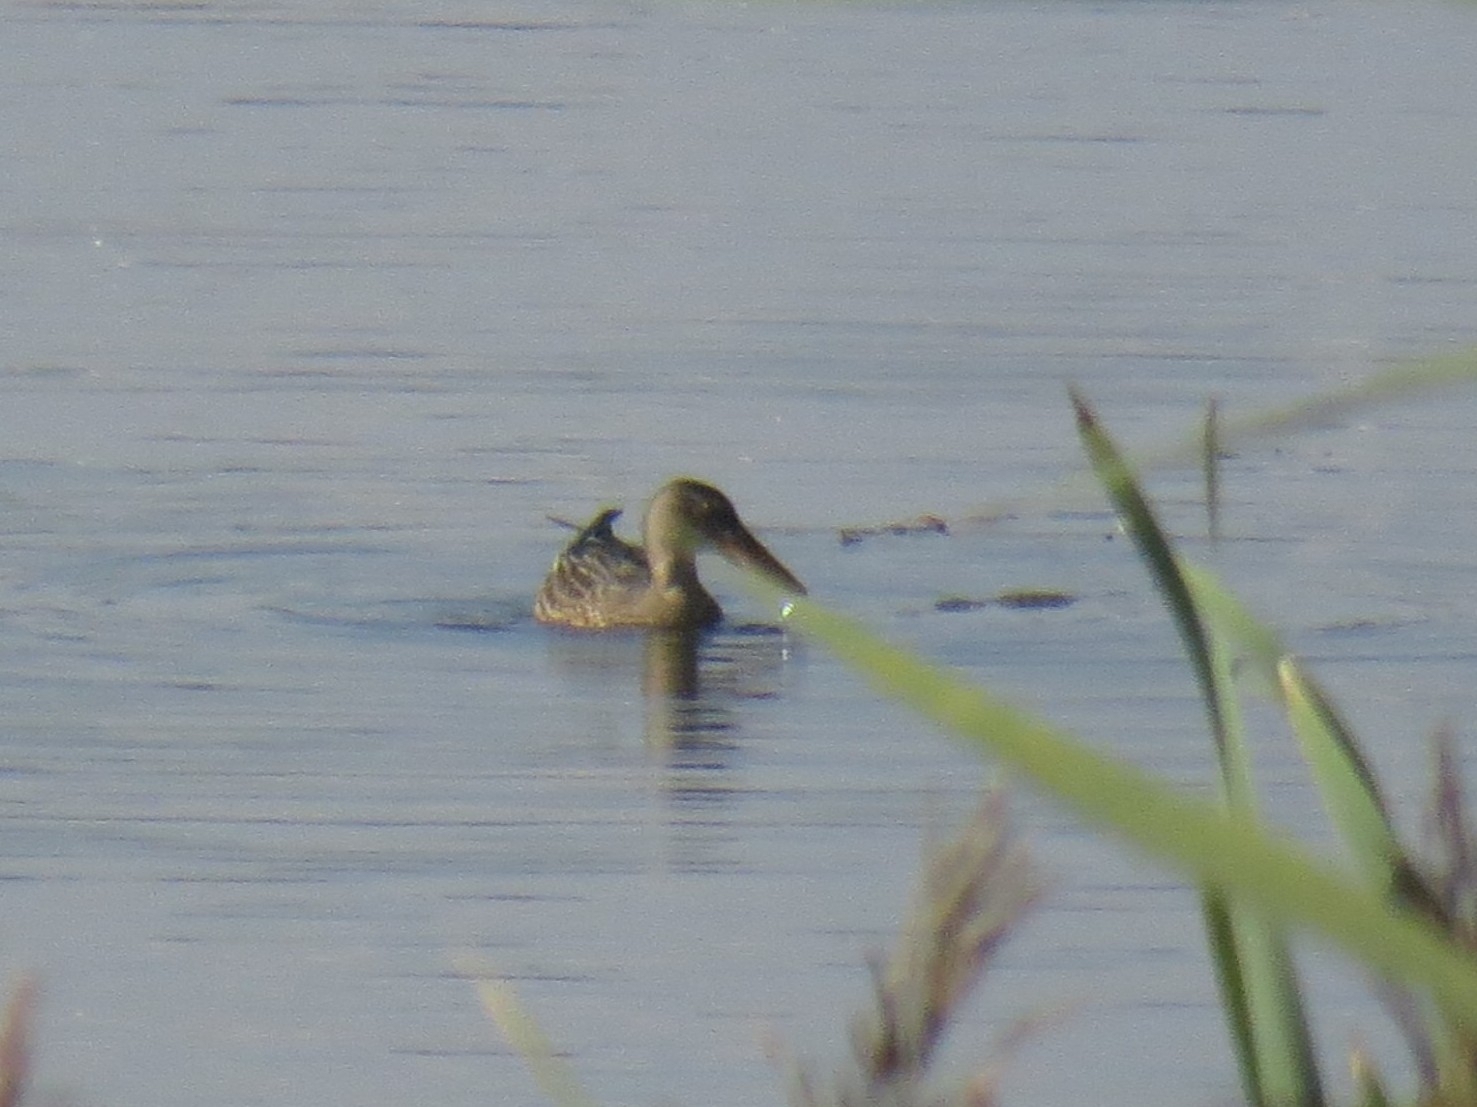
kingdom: Animalia
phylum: Chordata
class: Aves
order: Anseriformes
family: Anatidae
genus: Spatula
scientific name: Spatula clypeata
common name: Northern shoveler
